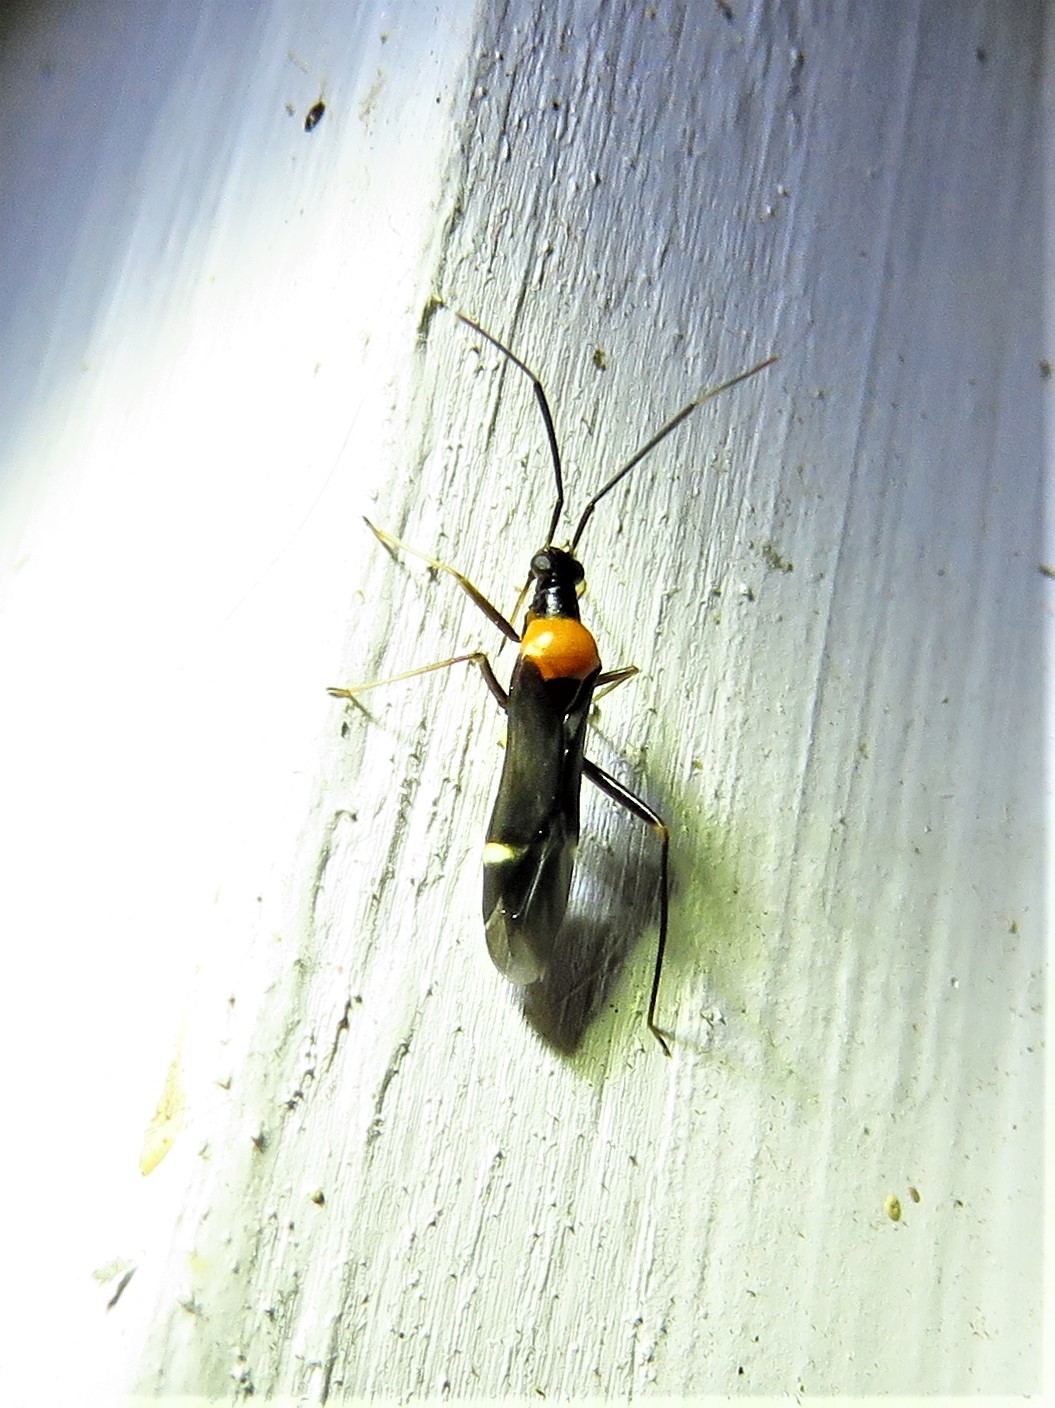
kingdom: Animalia
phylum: Arthropoda
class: Insecta
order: Hemiptera
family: Miridae
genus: Pseudoxenetus
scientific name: Pseudoxenetus regalis
